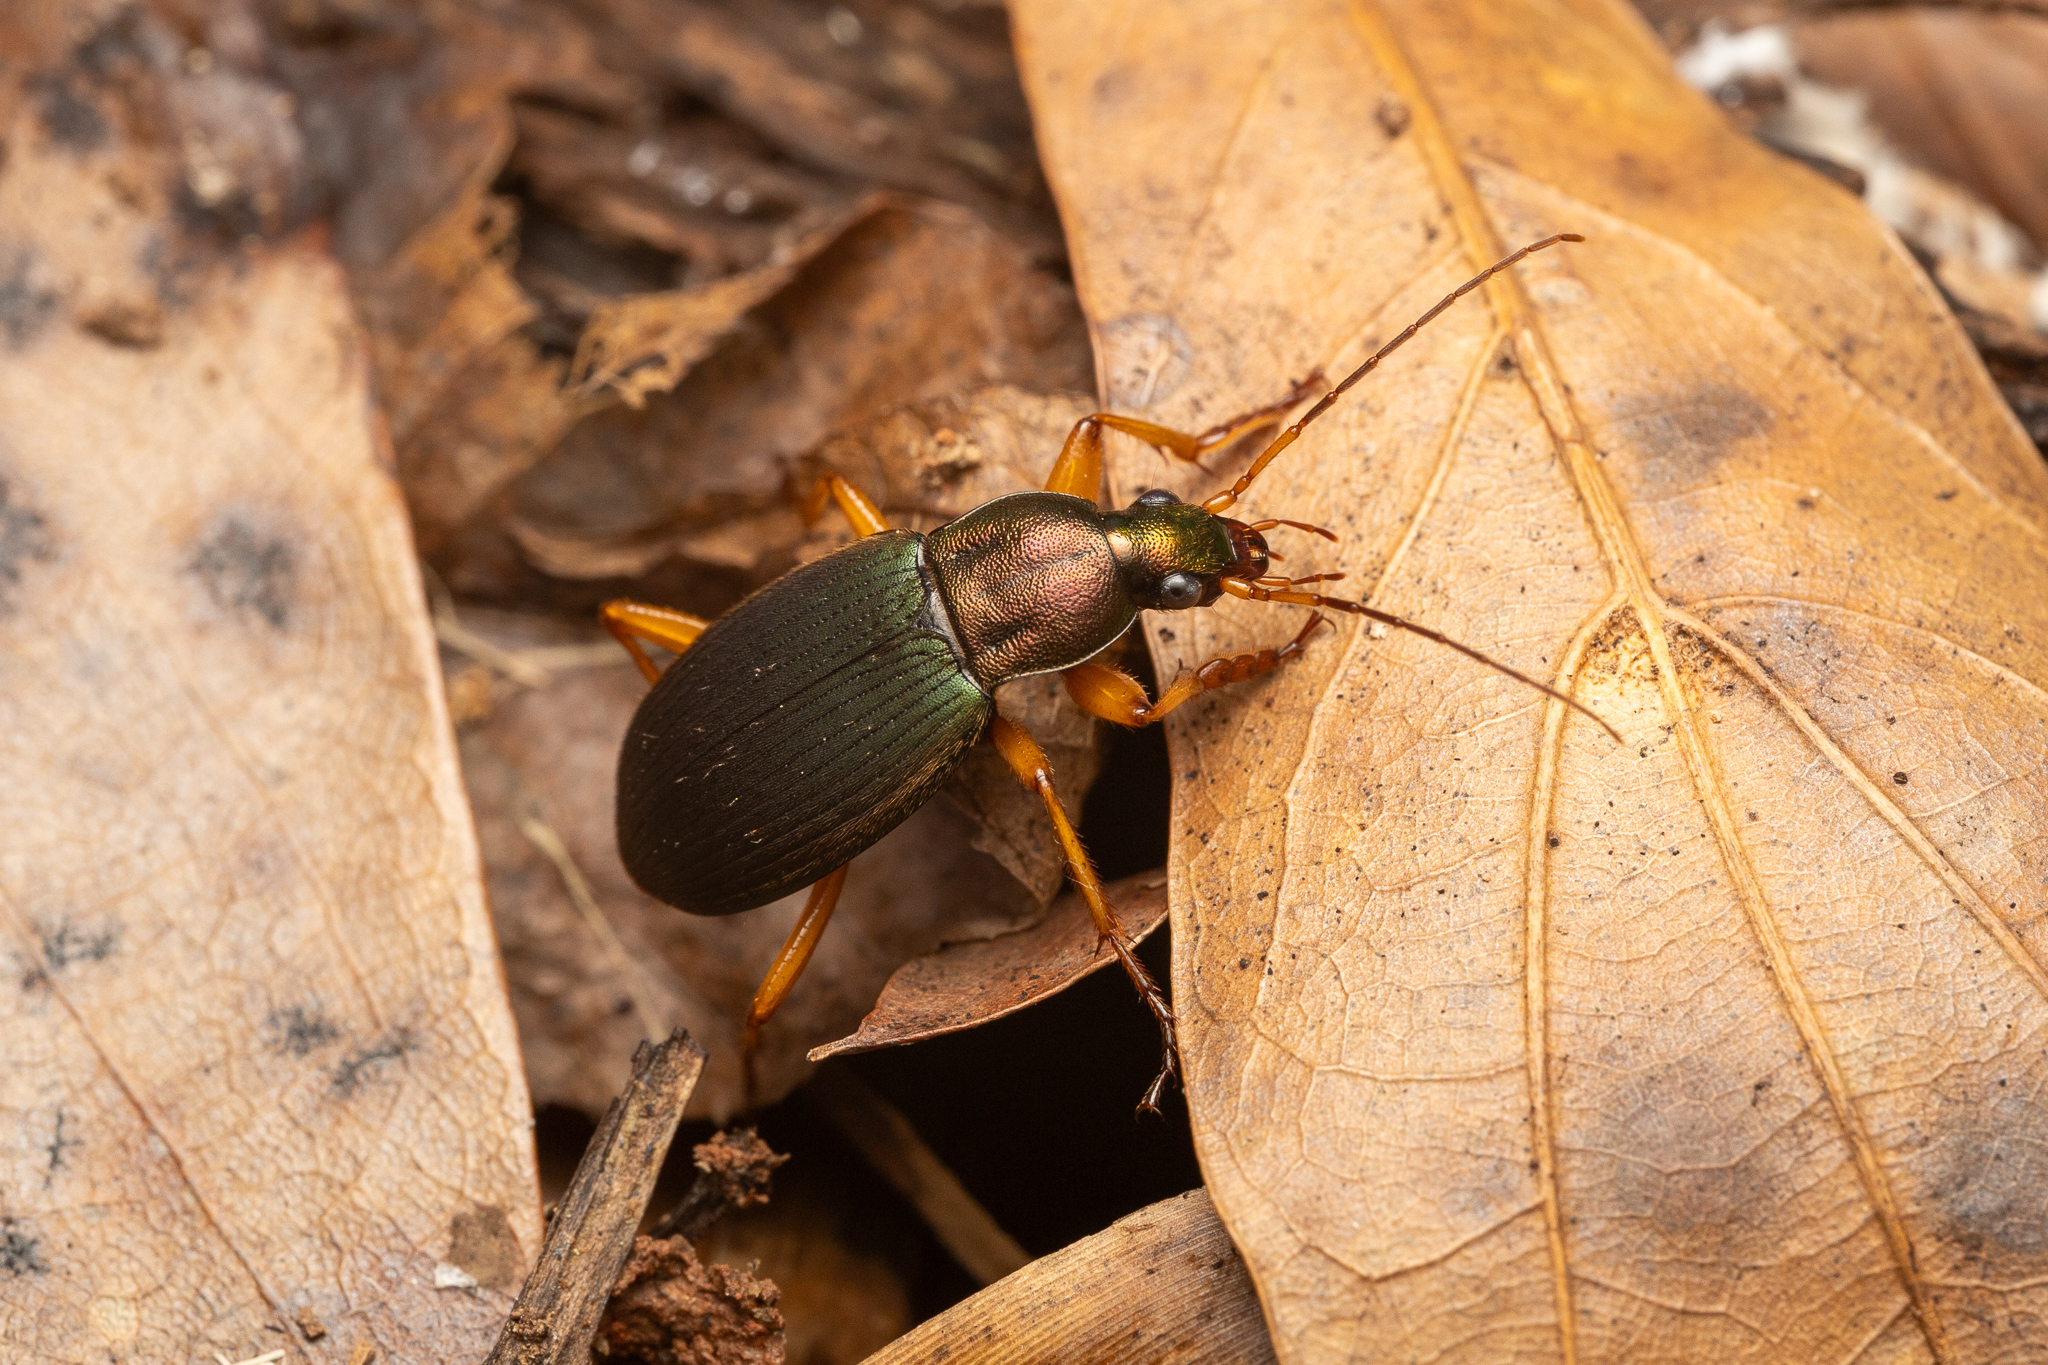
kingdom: Animalia
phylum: Arthropoda
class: Insecta
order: Coleoptera
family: Carabidae
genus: Chlaenius
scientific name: Chlaenius aestivus
